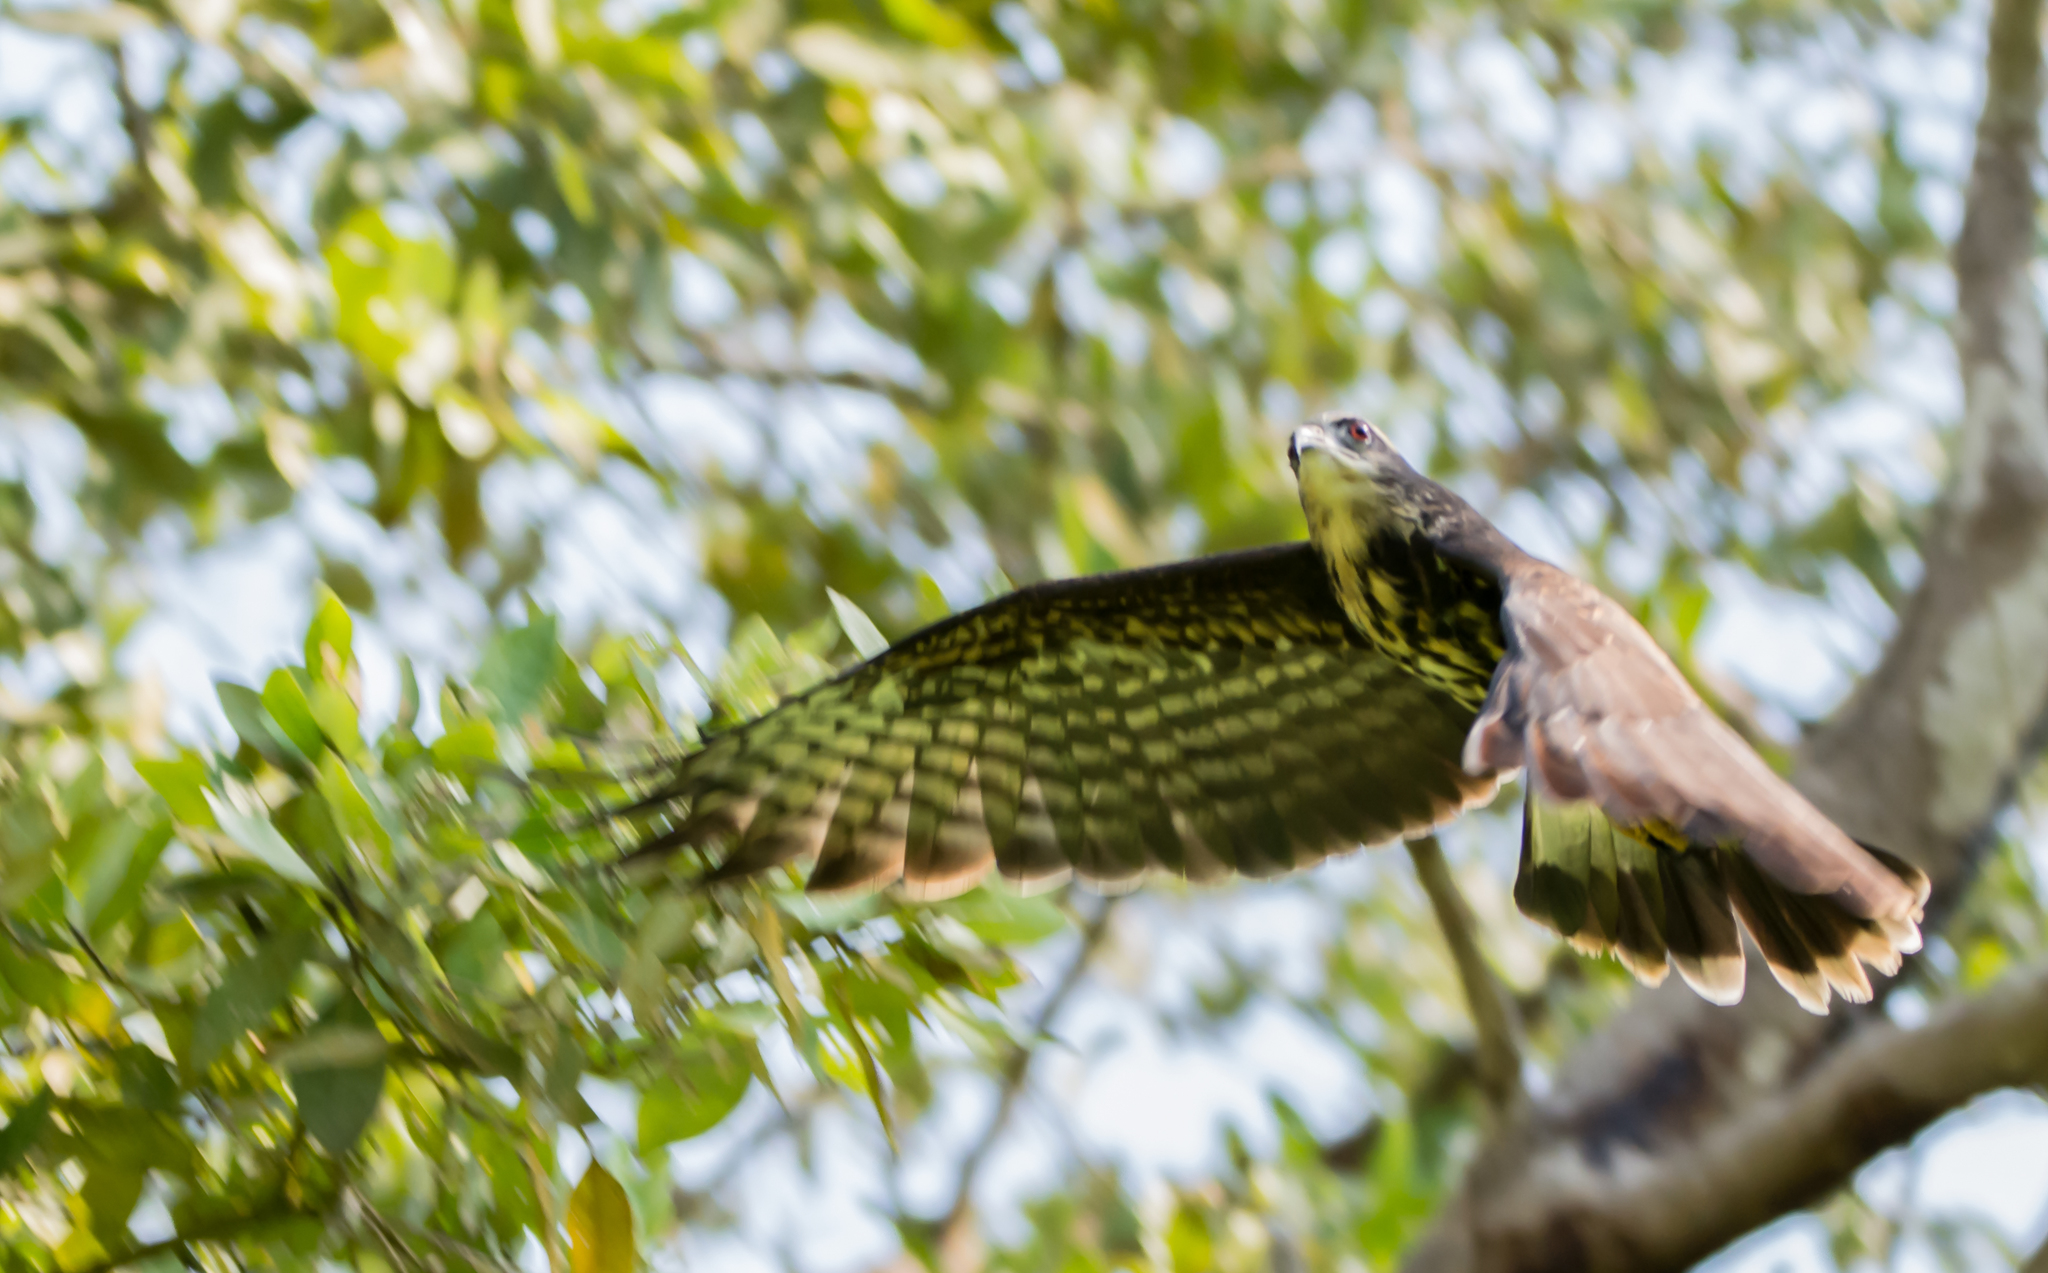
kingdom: Animalia
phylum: Chordata
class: Aves
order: Accipitriformes
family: Accipitridae
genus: Rostrhamus
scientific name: Rostrhamus sociabilis
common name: Snail kite
